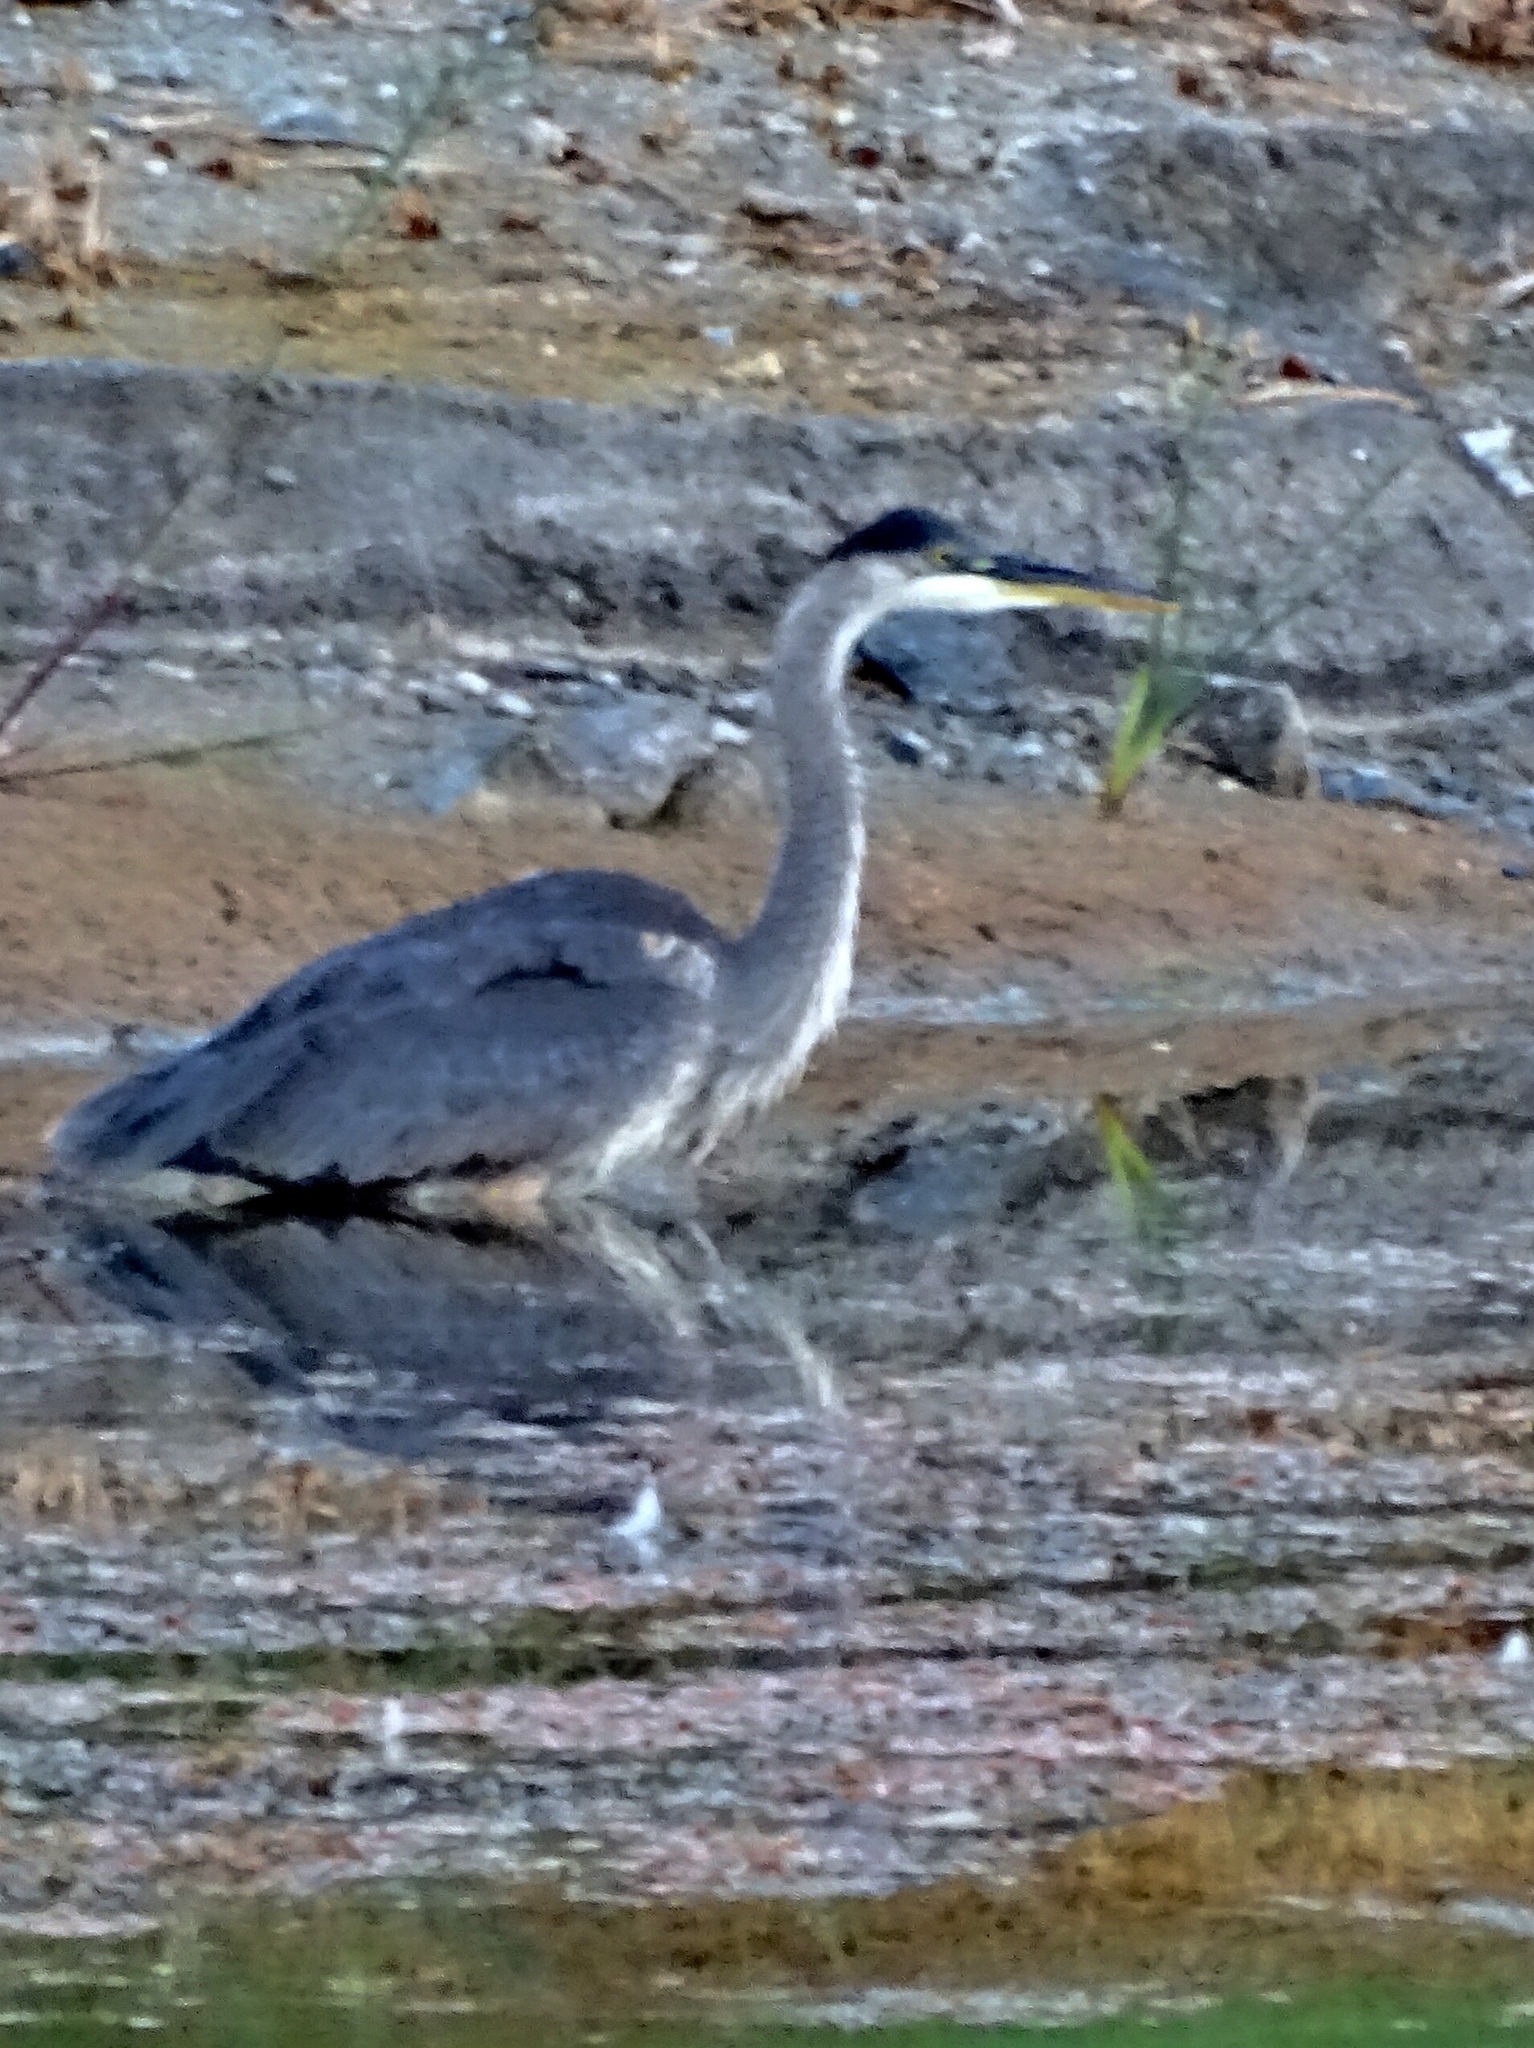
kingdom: Animalia
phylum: Chordata
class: Aves
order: Pelecaniformes
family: Ardeidae
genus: Ardea
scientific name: Ardea herodias
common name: Great blue heron
